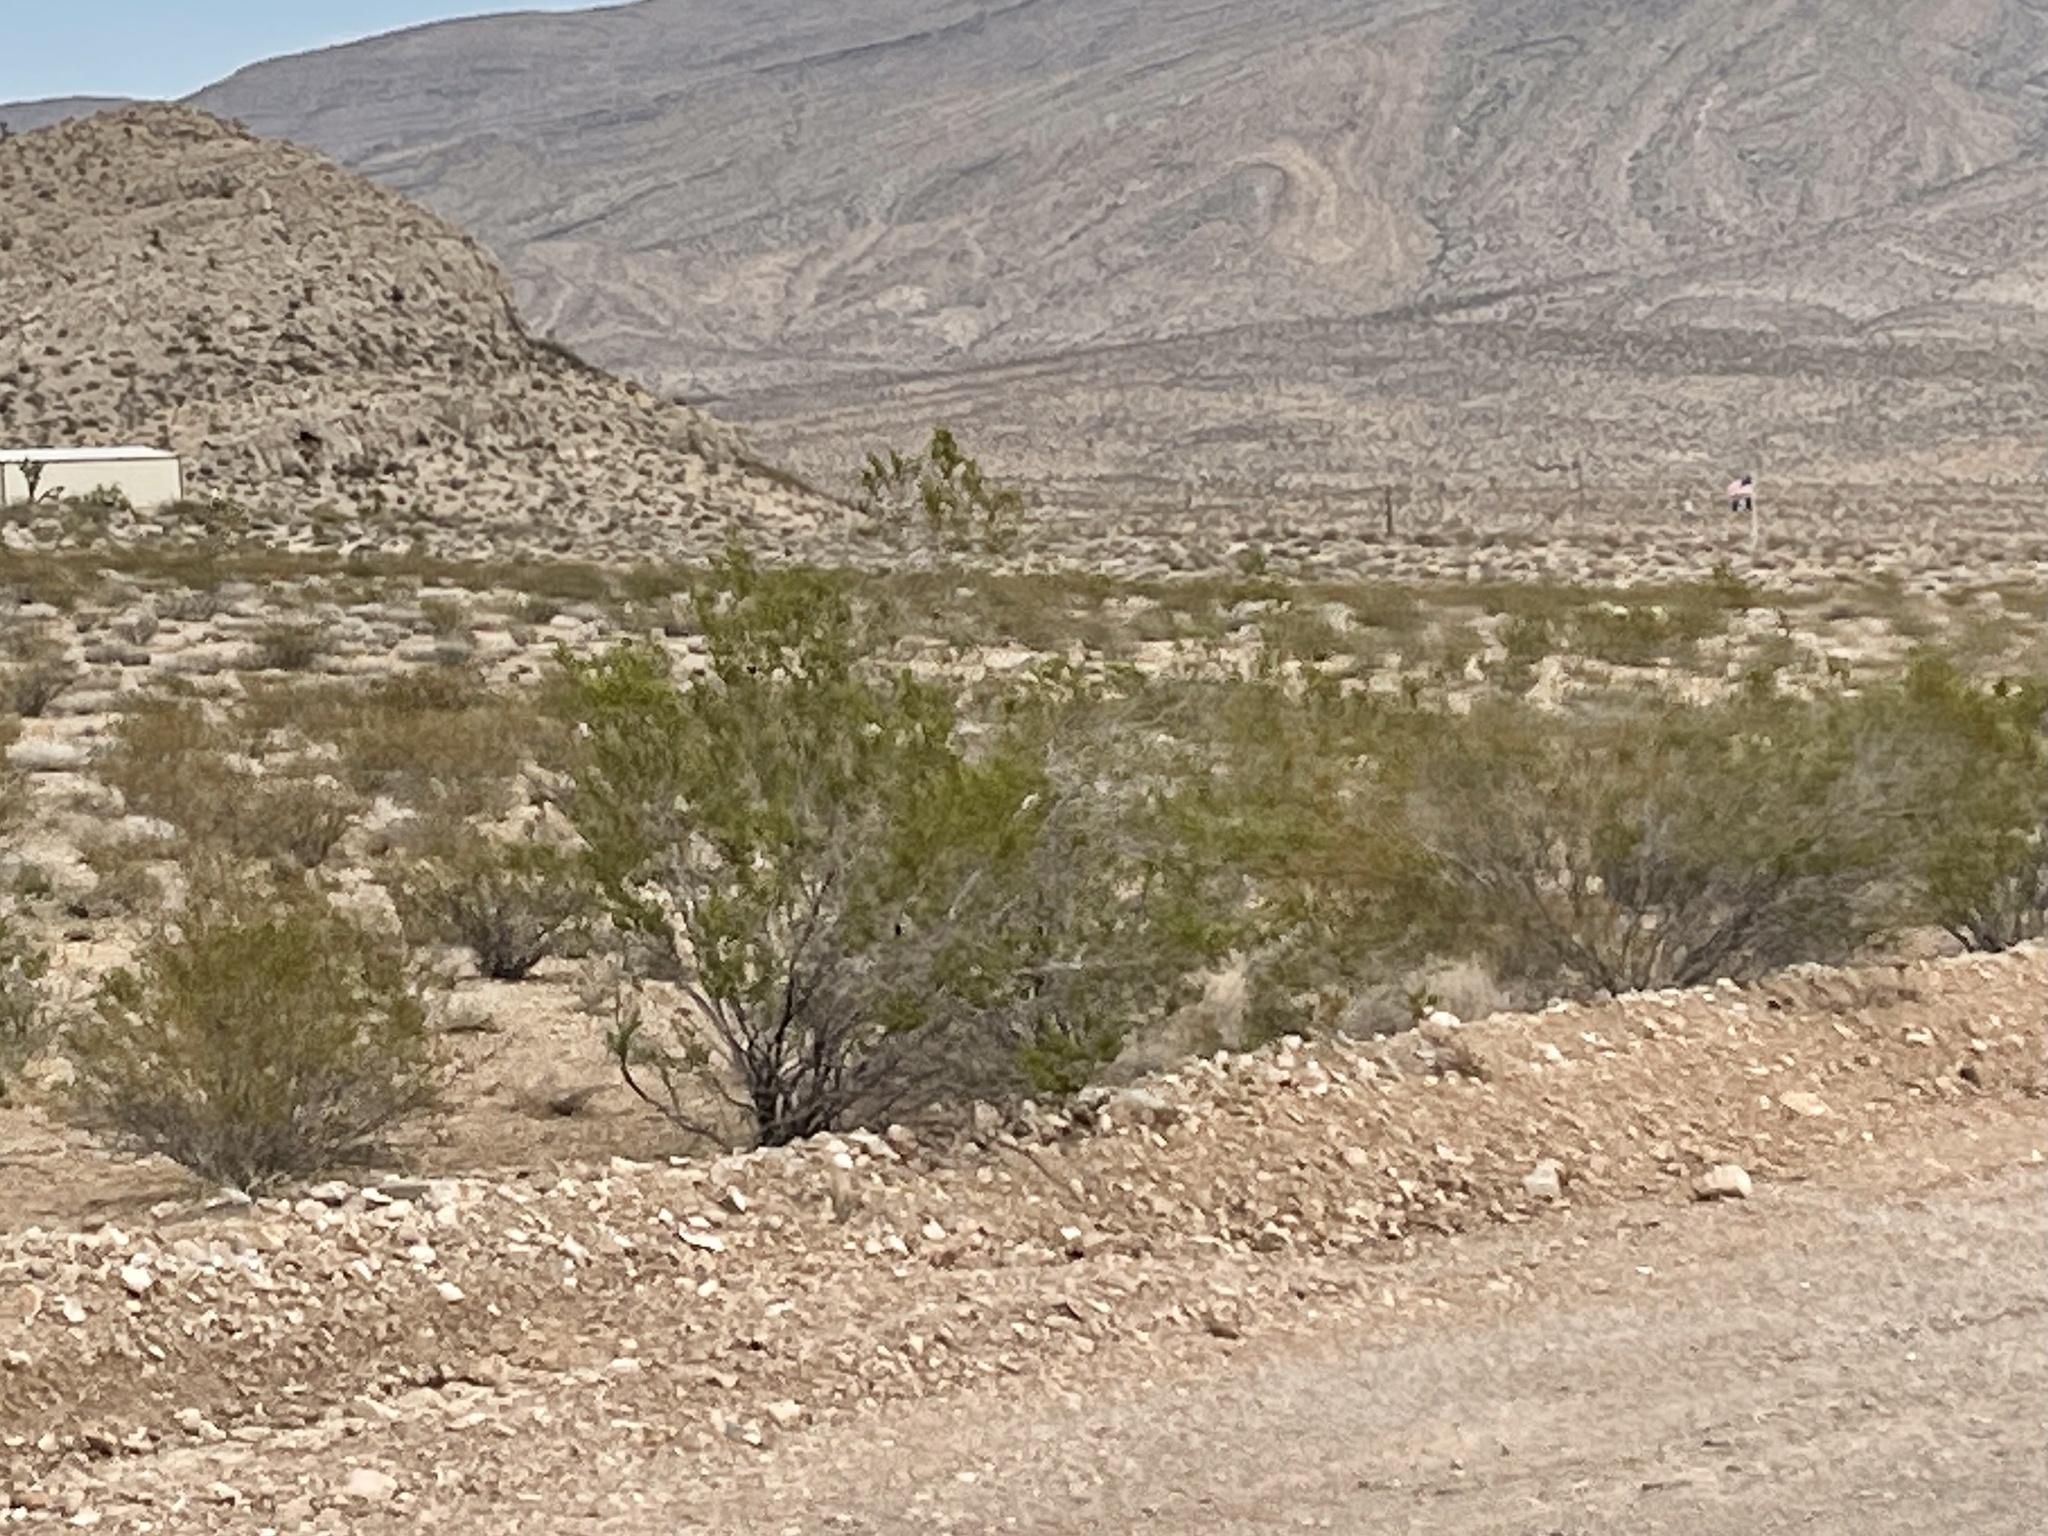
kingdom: Plantae
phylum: Tracheophyta
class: Magnoliopsida
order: Zygophyllales
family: Zygophyllaceae
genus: Larrea
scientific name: Larrea tridentata
